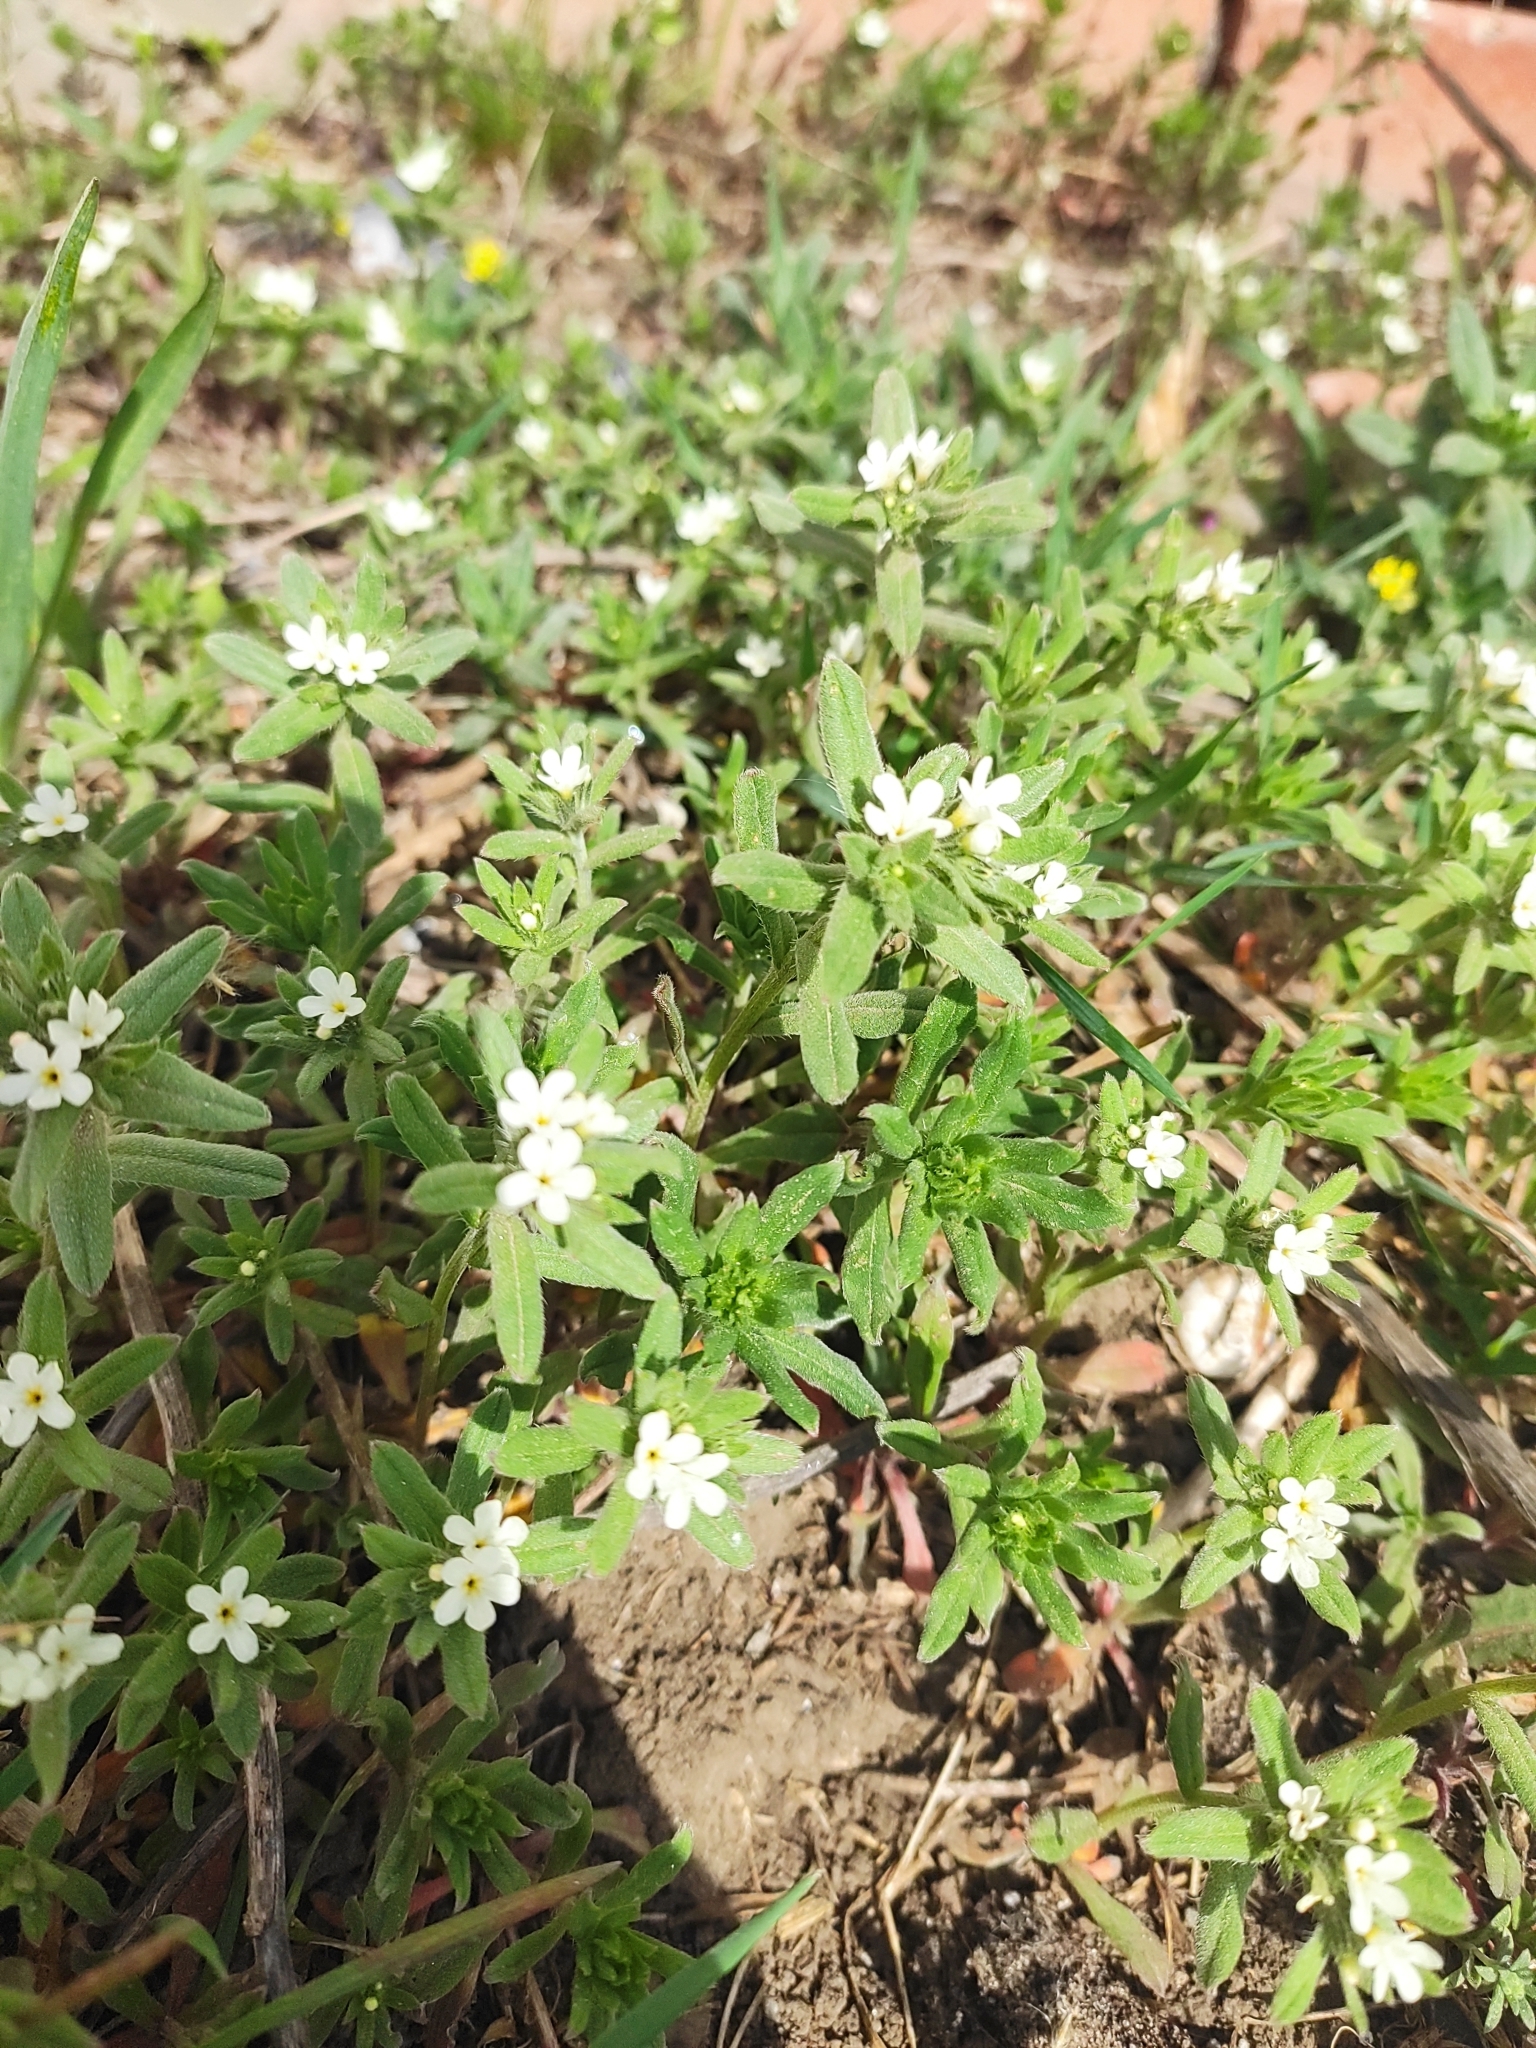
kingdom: Plantae
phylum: Tracheophyta
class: Magnoliopsida
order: Boraginales
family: Boraginaceae
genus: Buglossoides
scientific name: Buglossoides arvensis
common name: Corn gromwell
